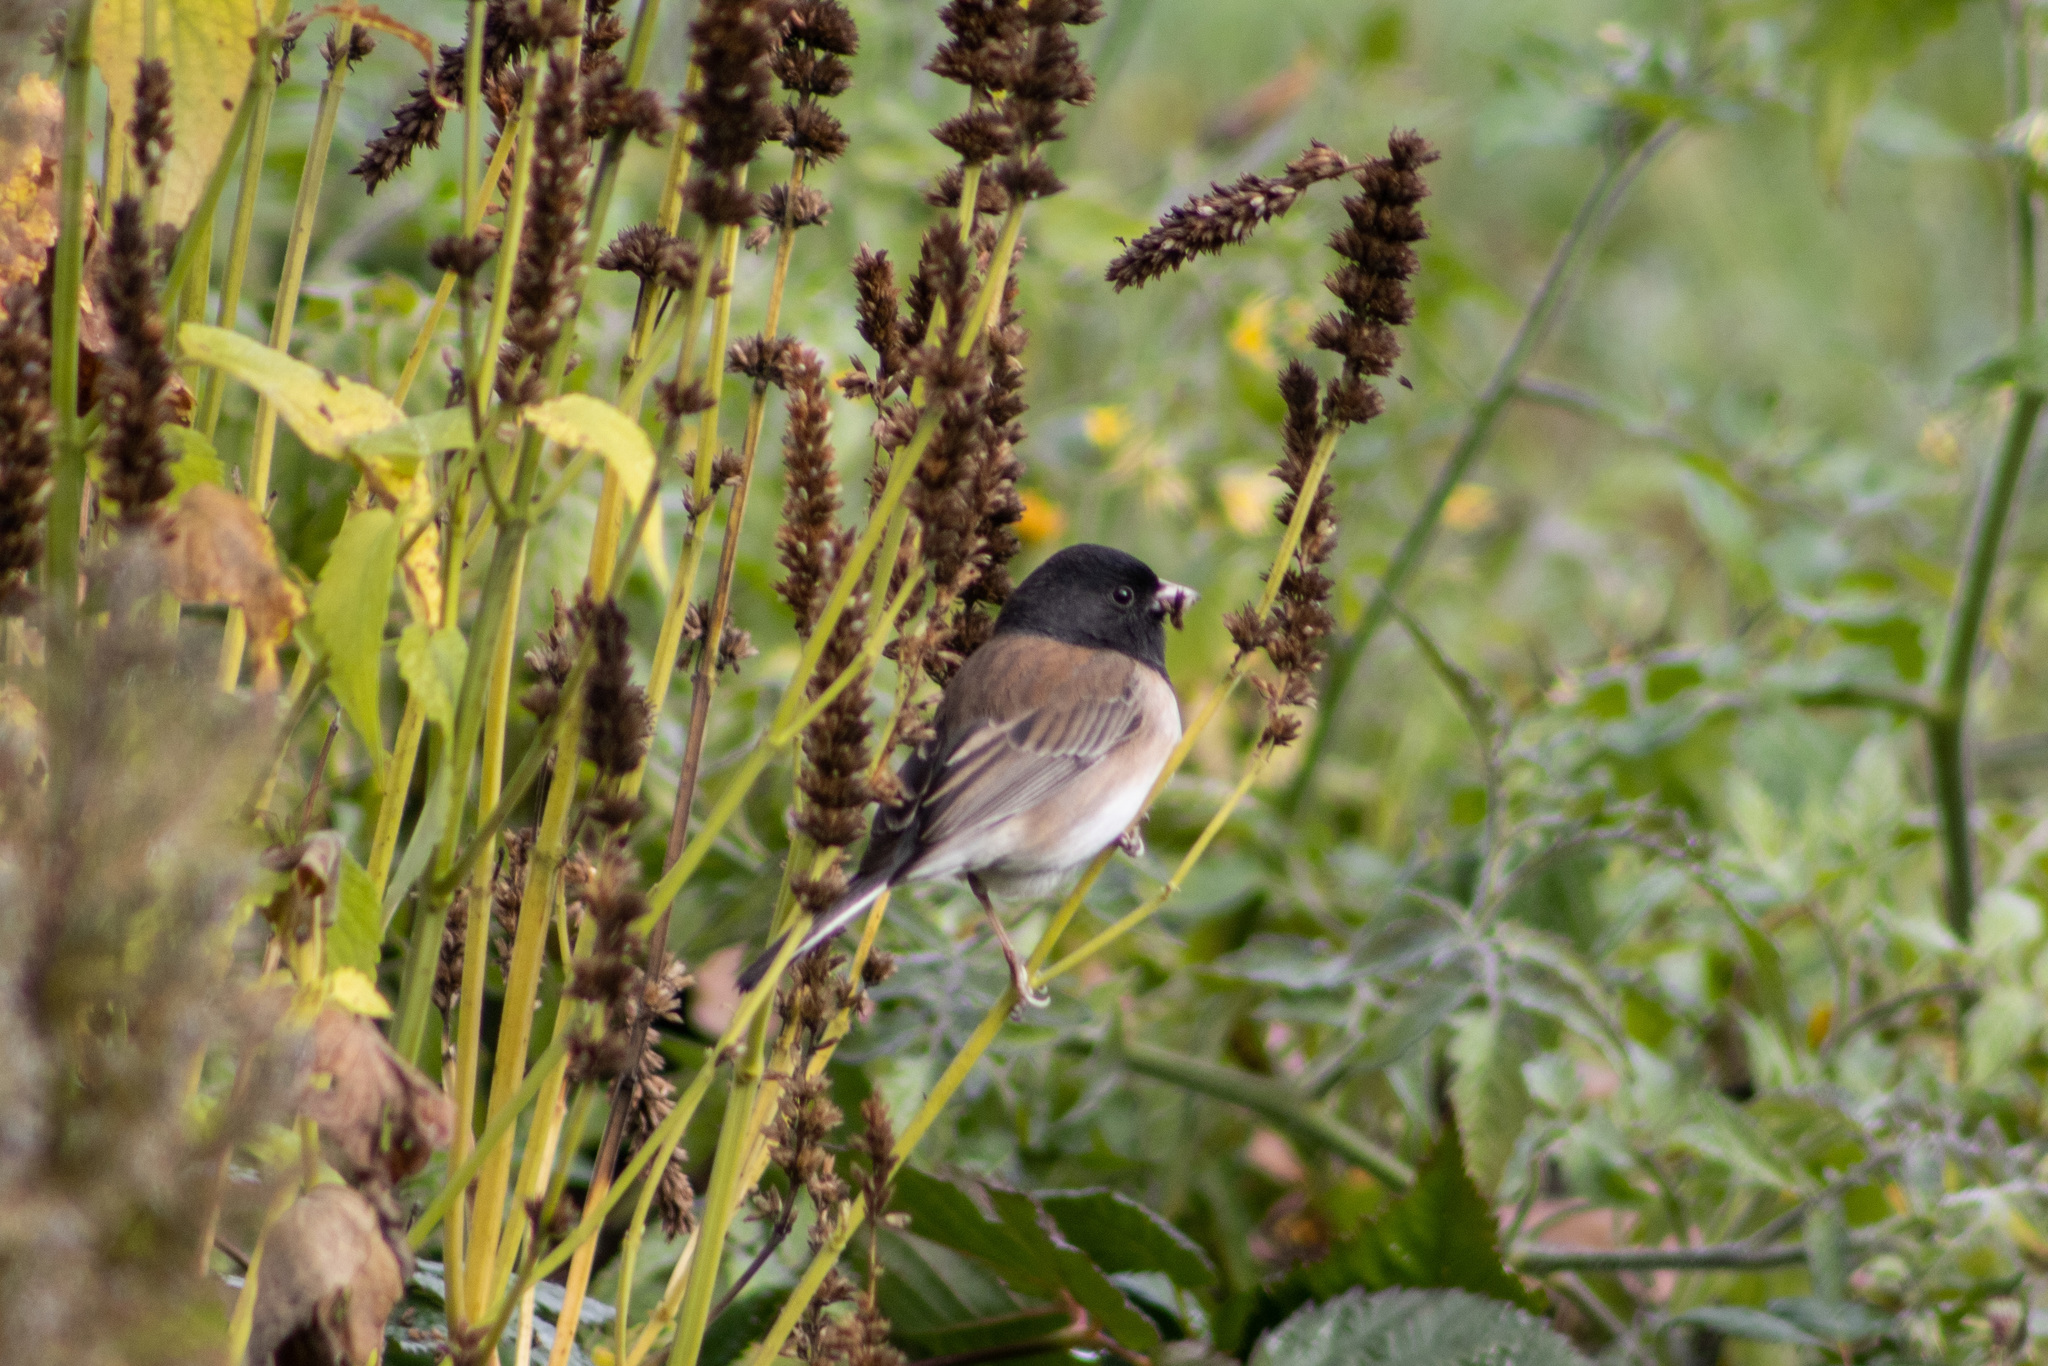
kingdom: Animalia
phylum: Chordata
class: Aves
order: Passeriformes
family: Passerellidae
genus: Junco
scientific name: Junco hyemalis
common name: Dark-eyed junco
